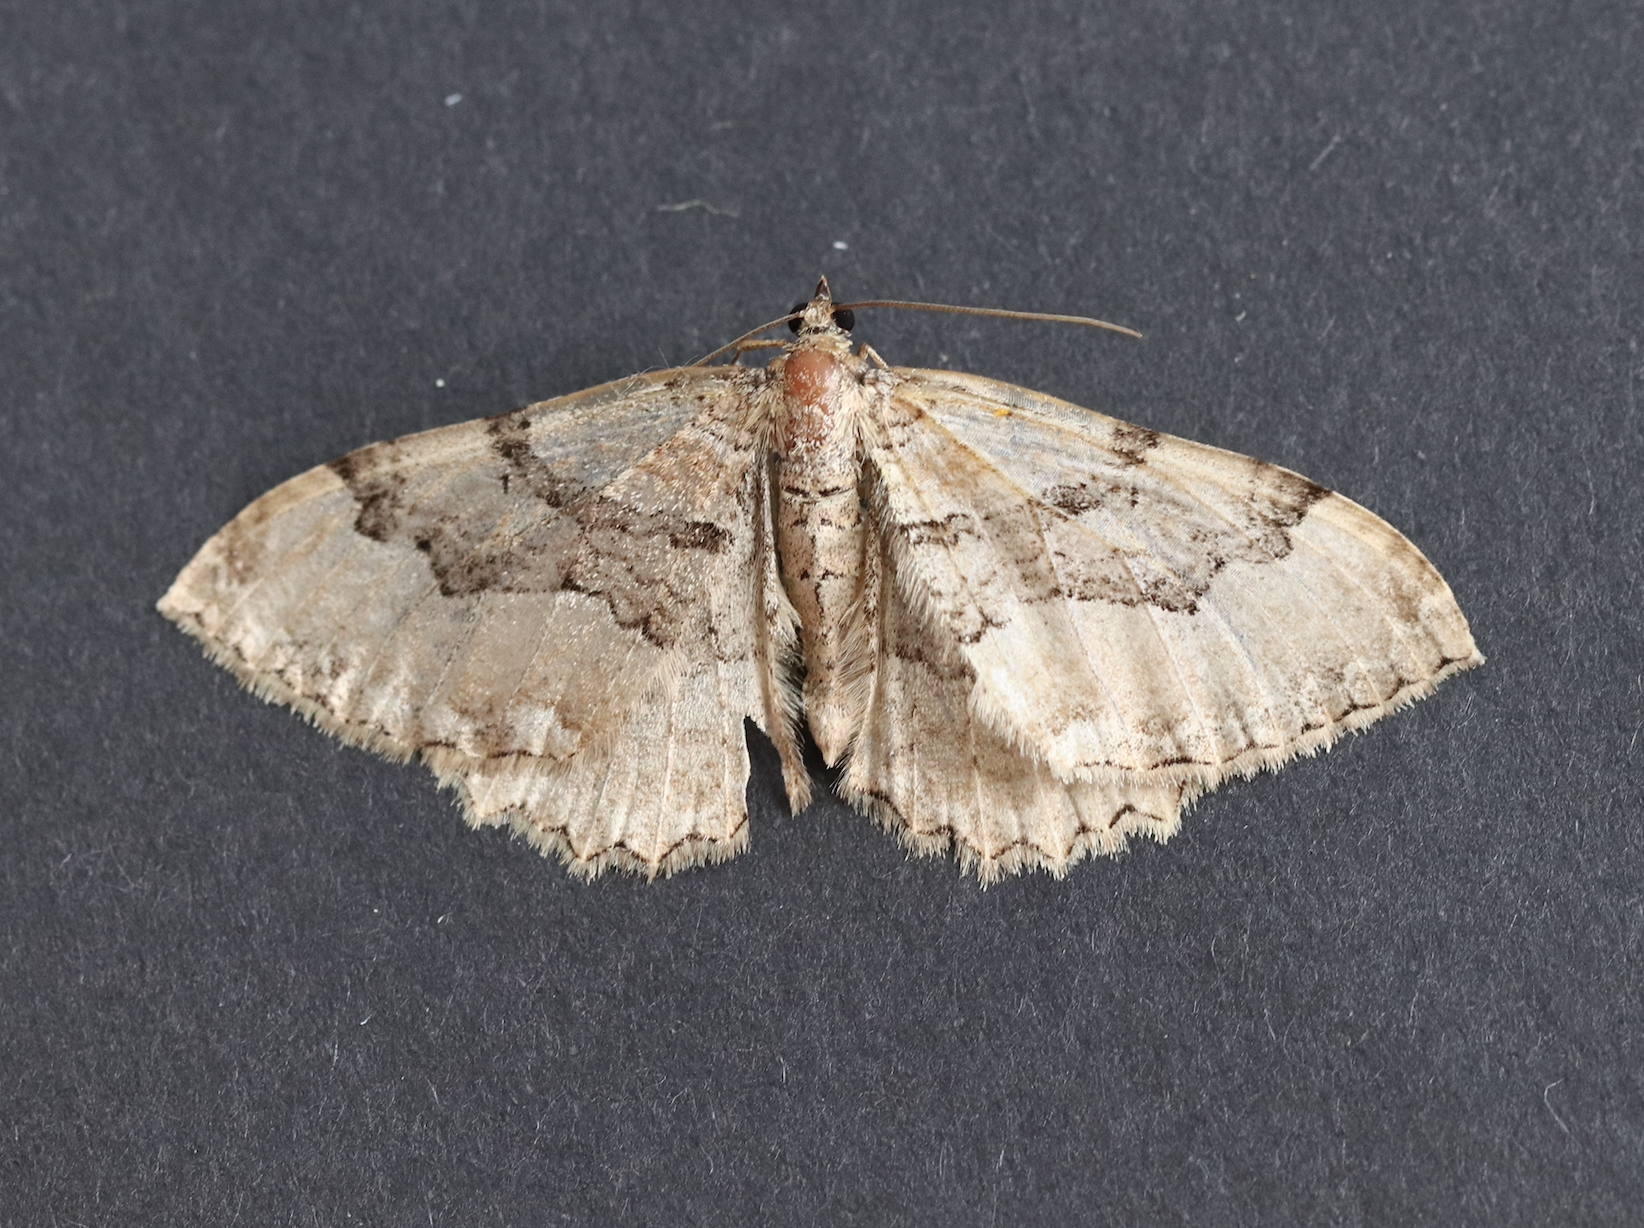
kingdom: Animalia
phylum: Arthropoda
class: Insecta
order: Lepidoptera
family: Geometridae
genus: Rheumaptera
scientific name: Rheumaptera Hydria cervinalis
